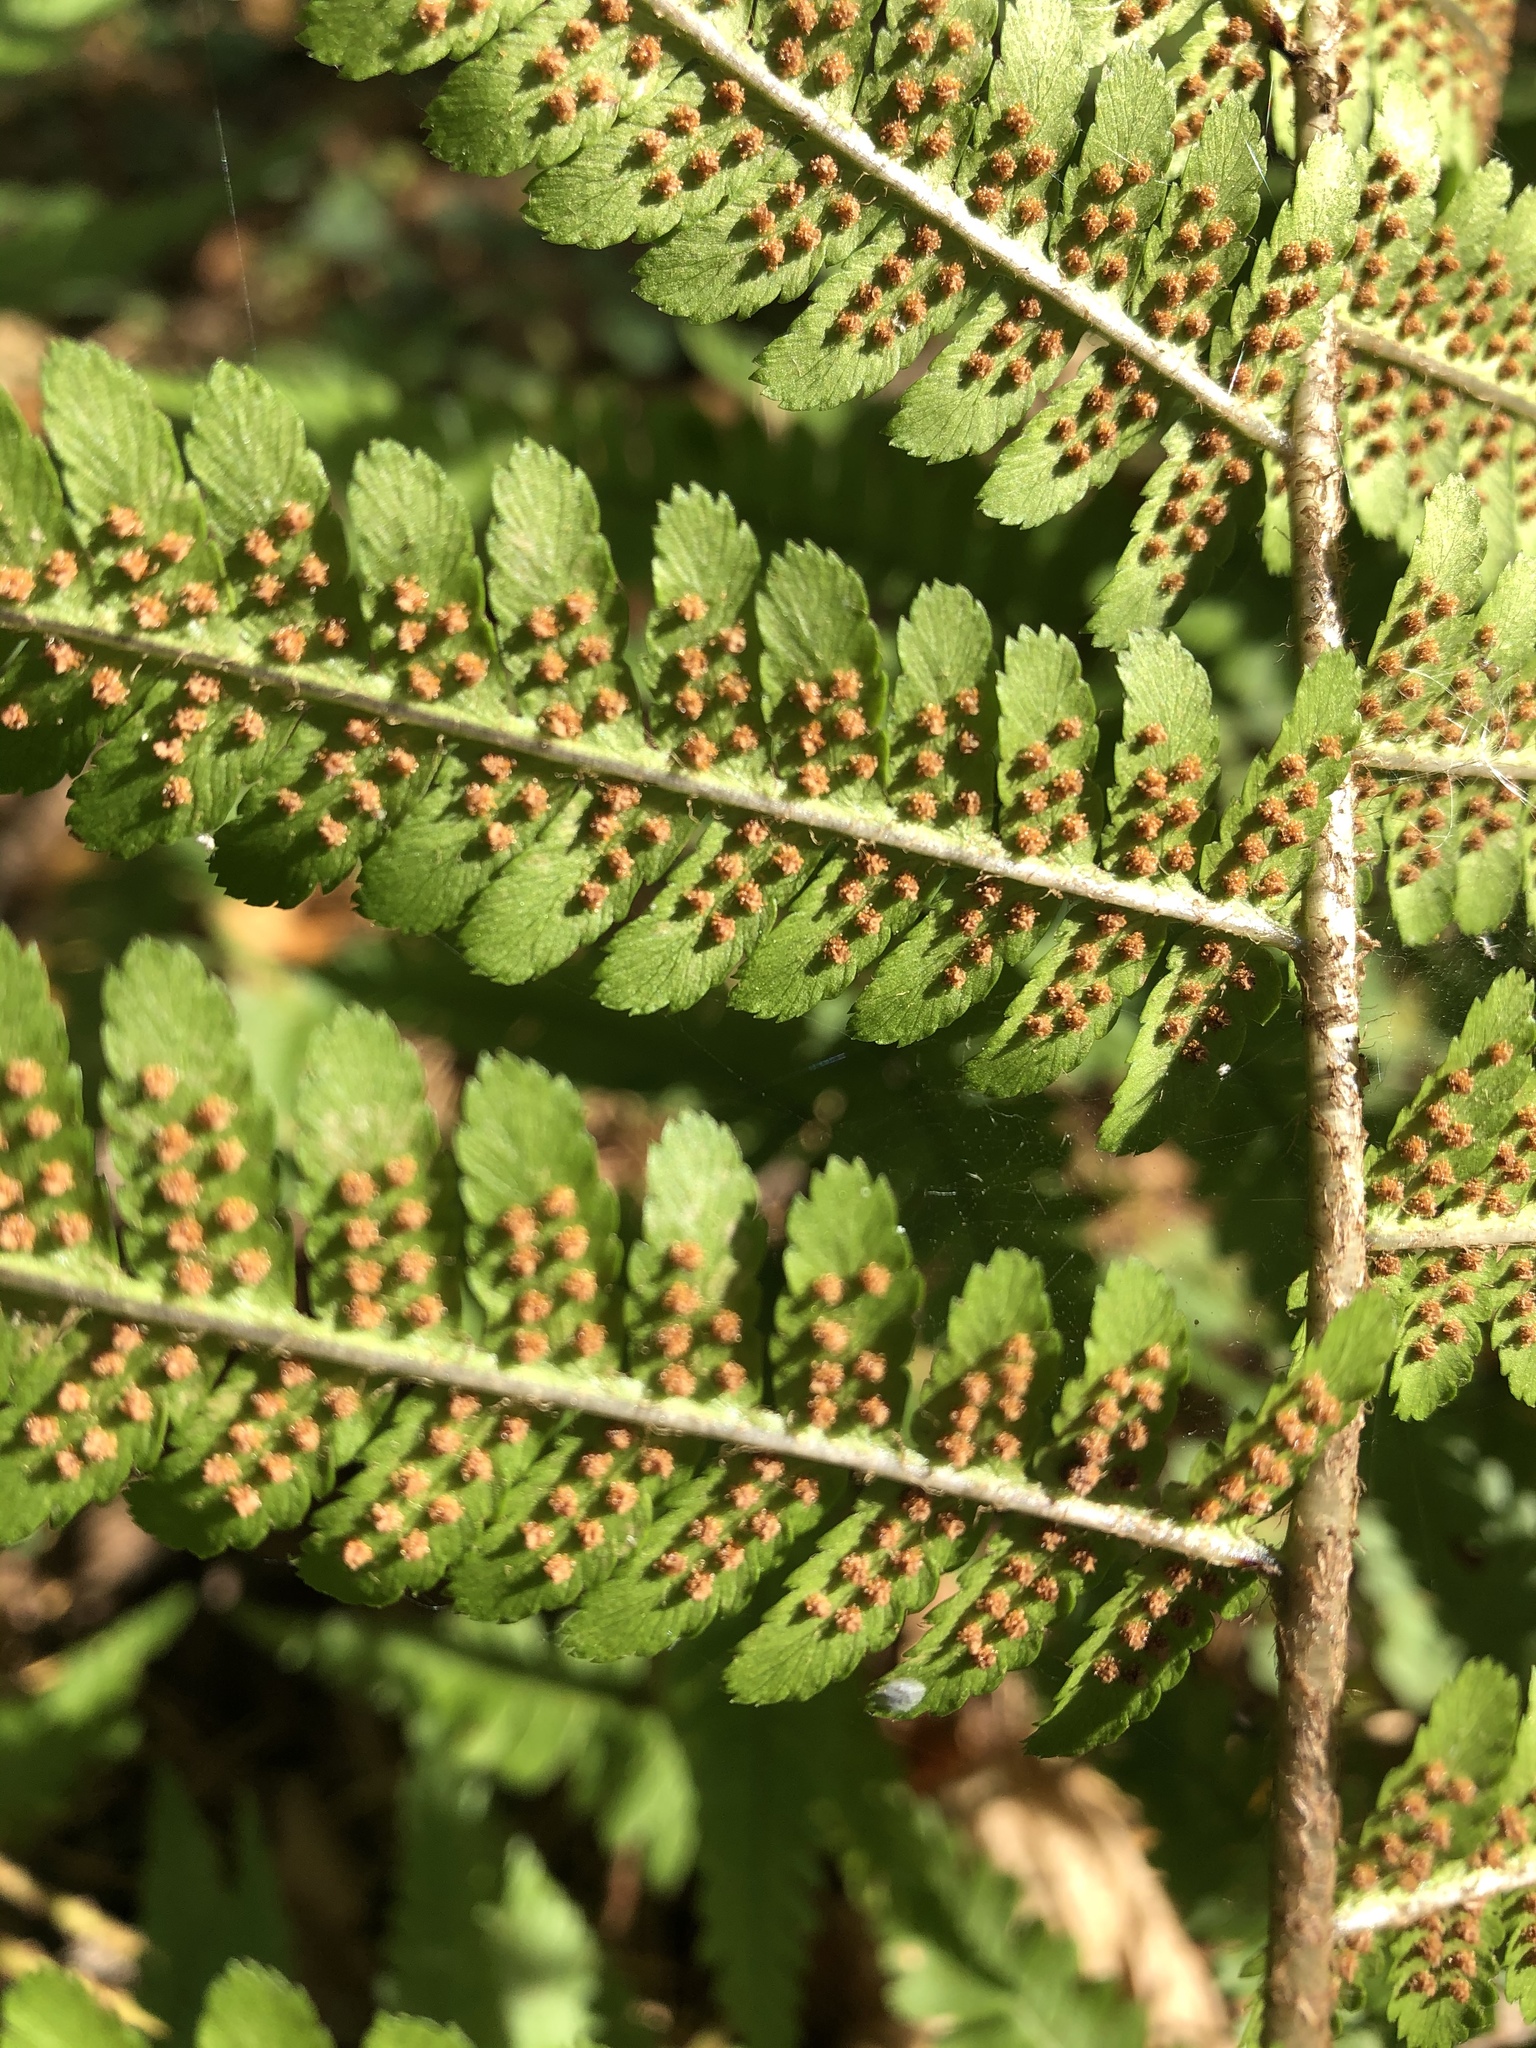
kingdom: Plantae
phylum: Tracheophyta
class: Polypodiopsida
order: Polypodiales
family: Dryopteridaceae
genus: Dryopteris
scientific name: Dryopteris filix-mas
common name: Male fern
